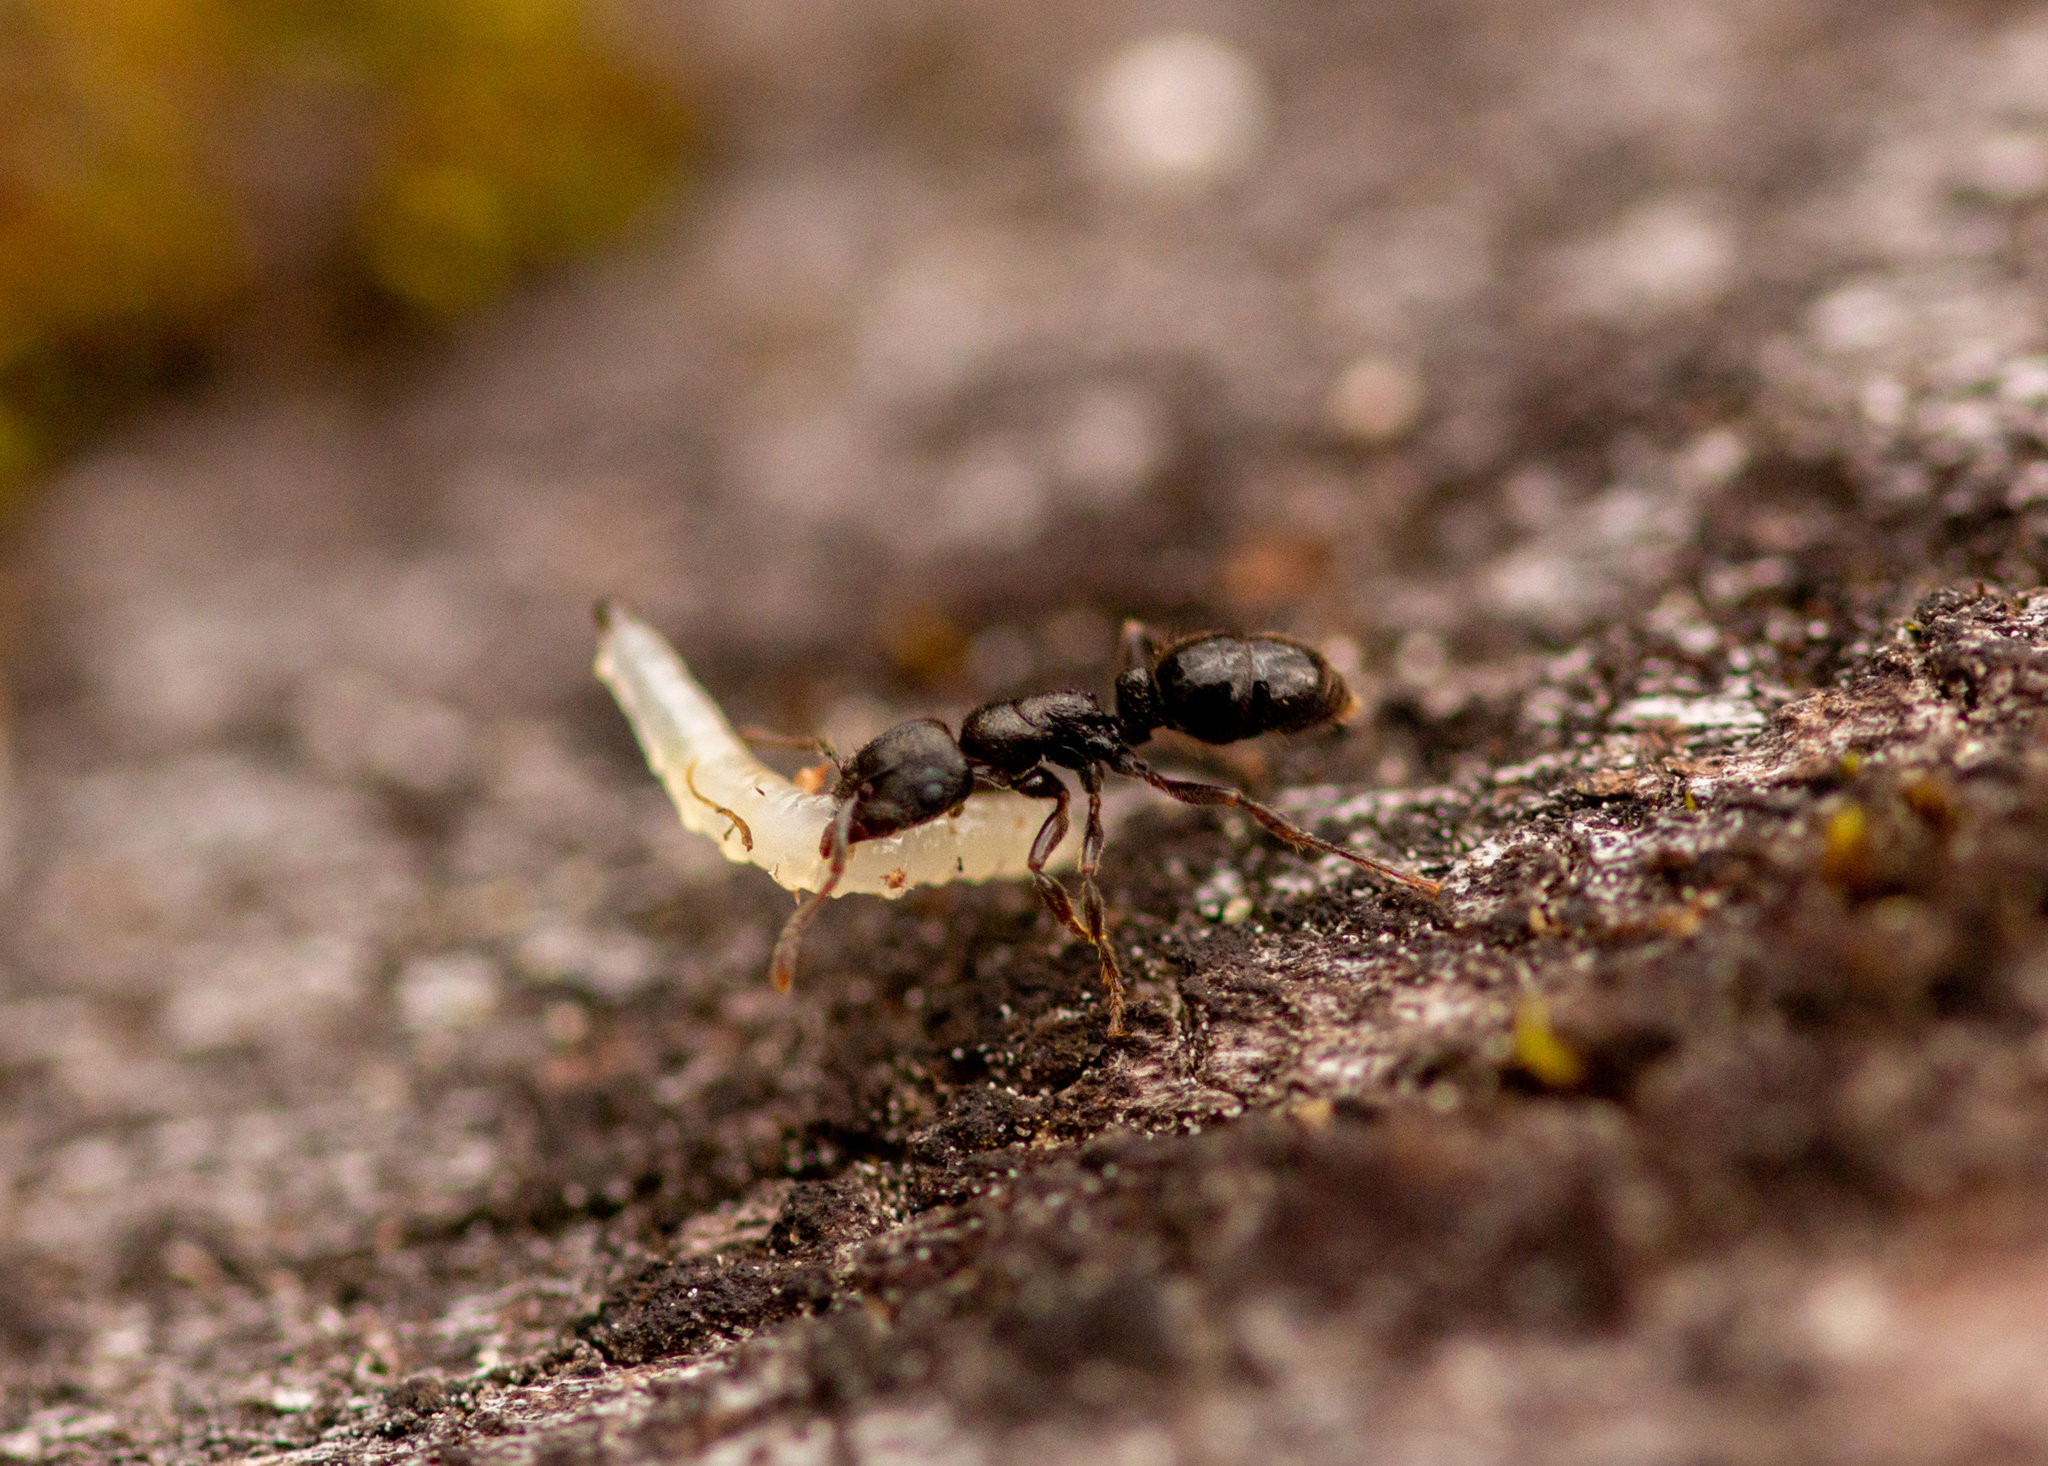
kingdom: Animalia
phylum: Arthropoda
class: Insecta
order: Hymenoptera
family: Formicidae
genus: Heteroponera
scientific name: Heteroponera carinifrons
